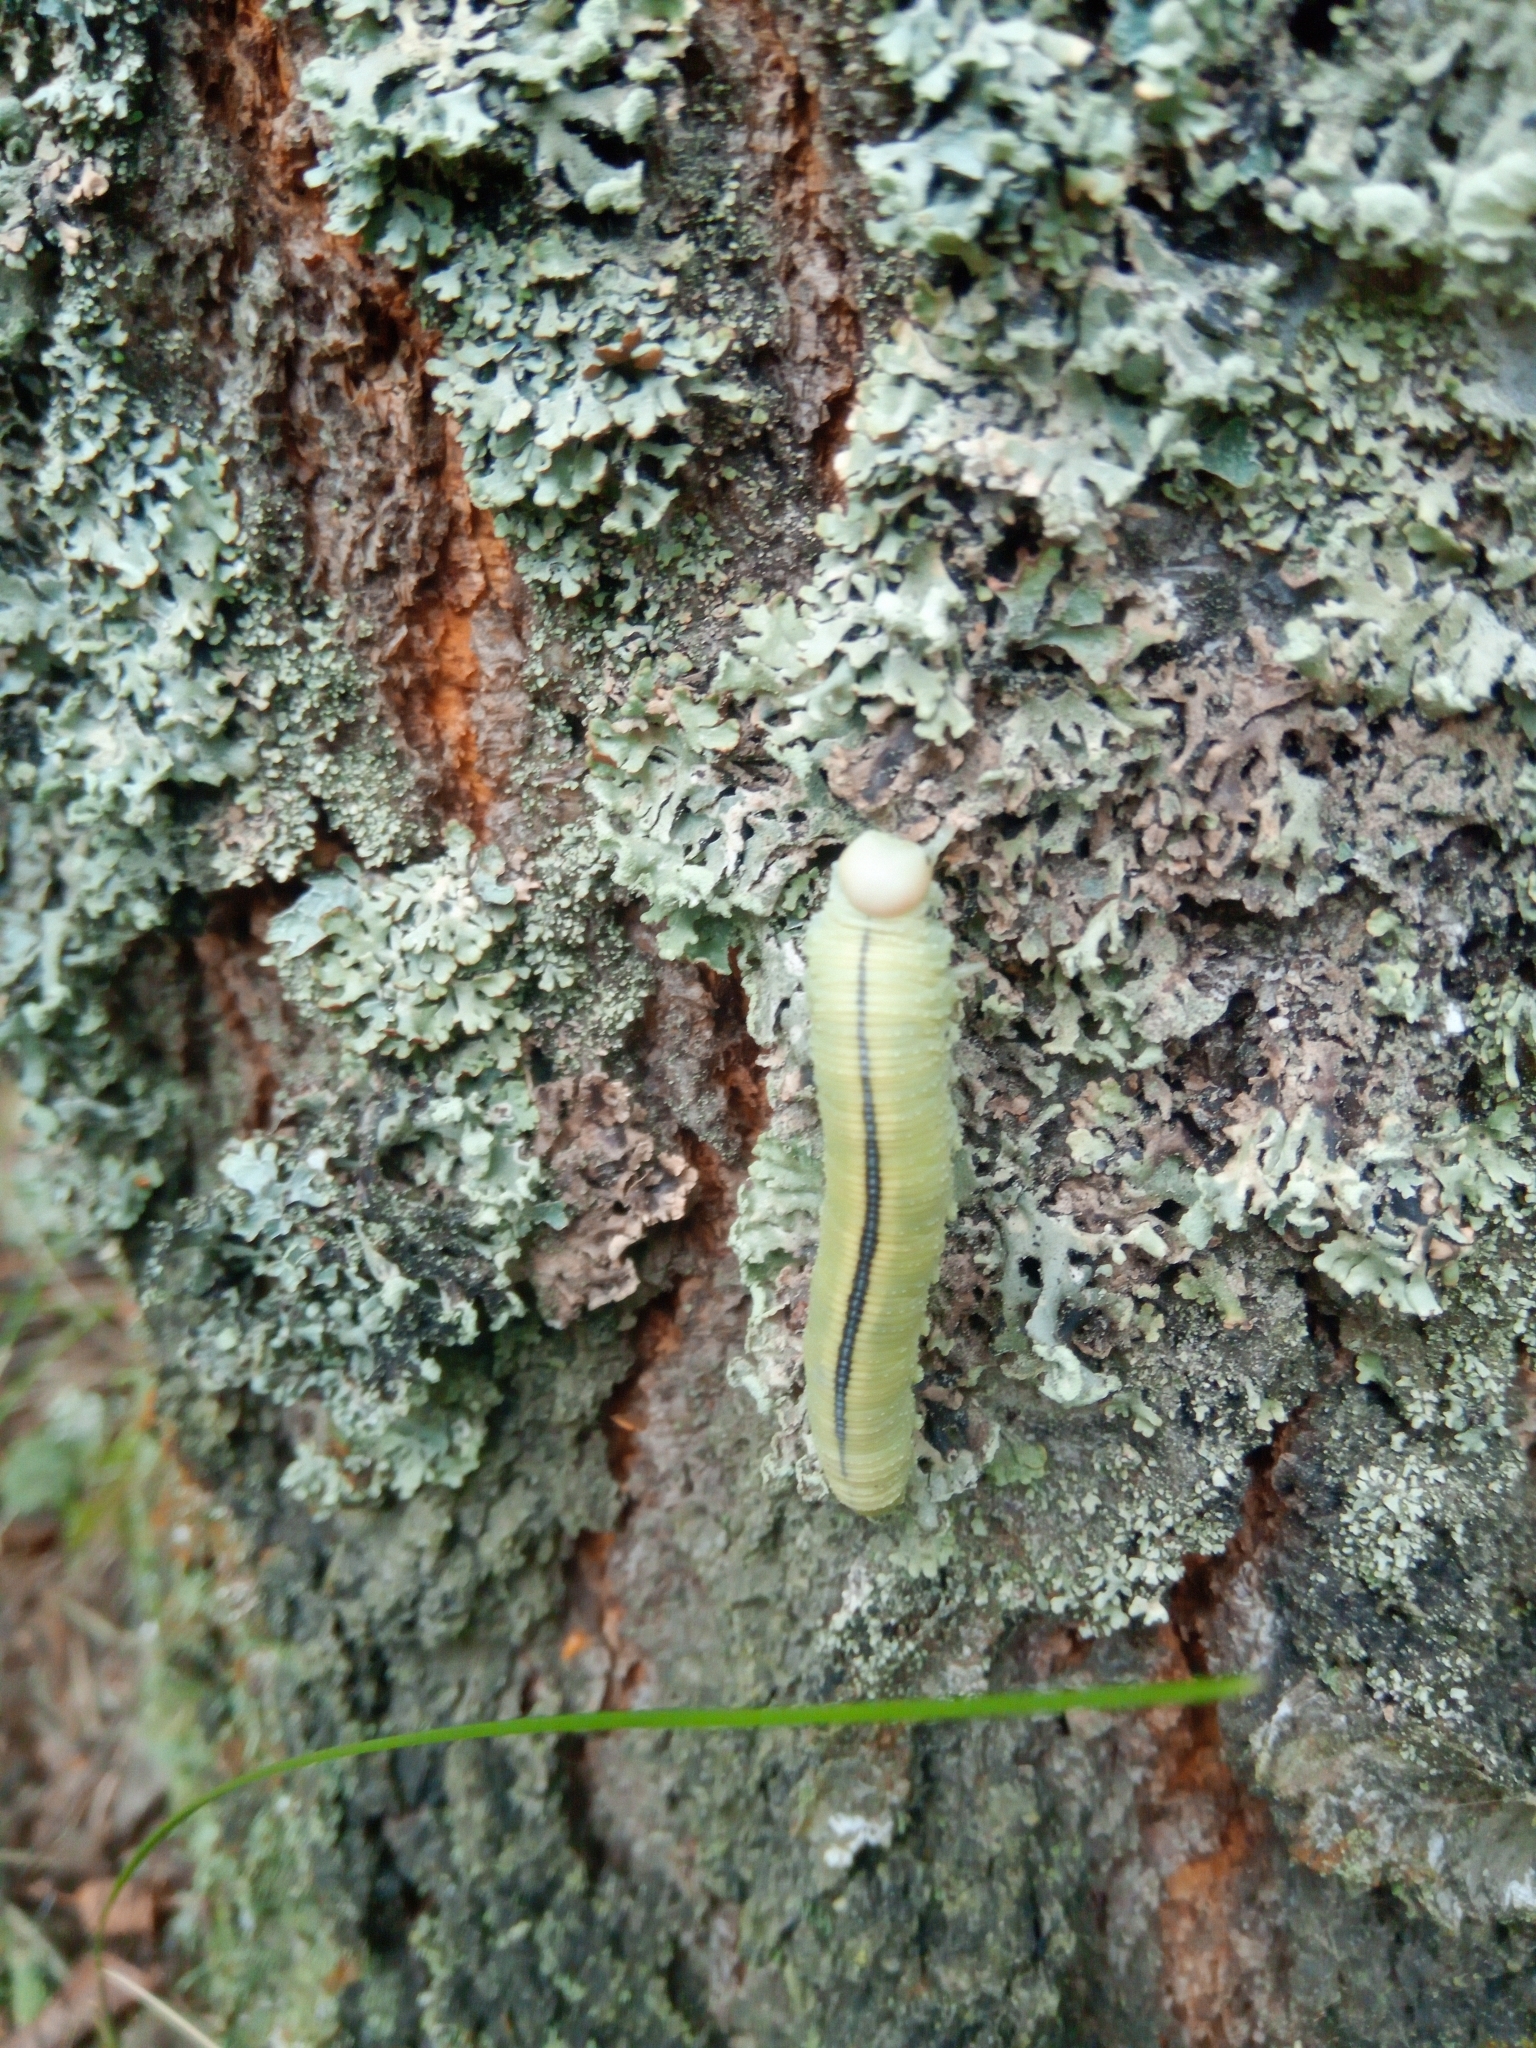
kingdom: Animalia
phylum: Arthropoda
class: Insecta
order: Hymenoptera
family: Cimbicidae
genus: Cimbex
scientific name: Cimbex femoratus
